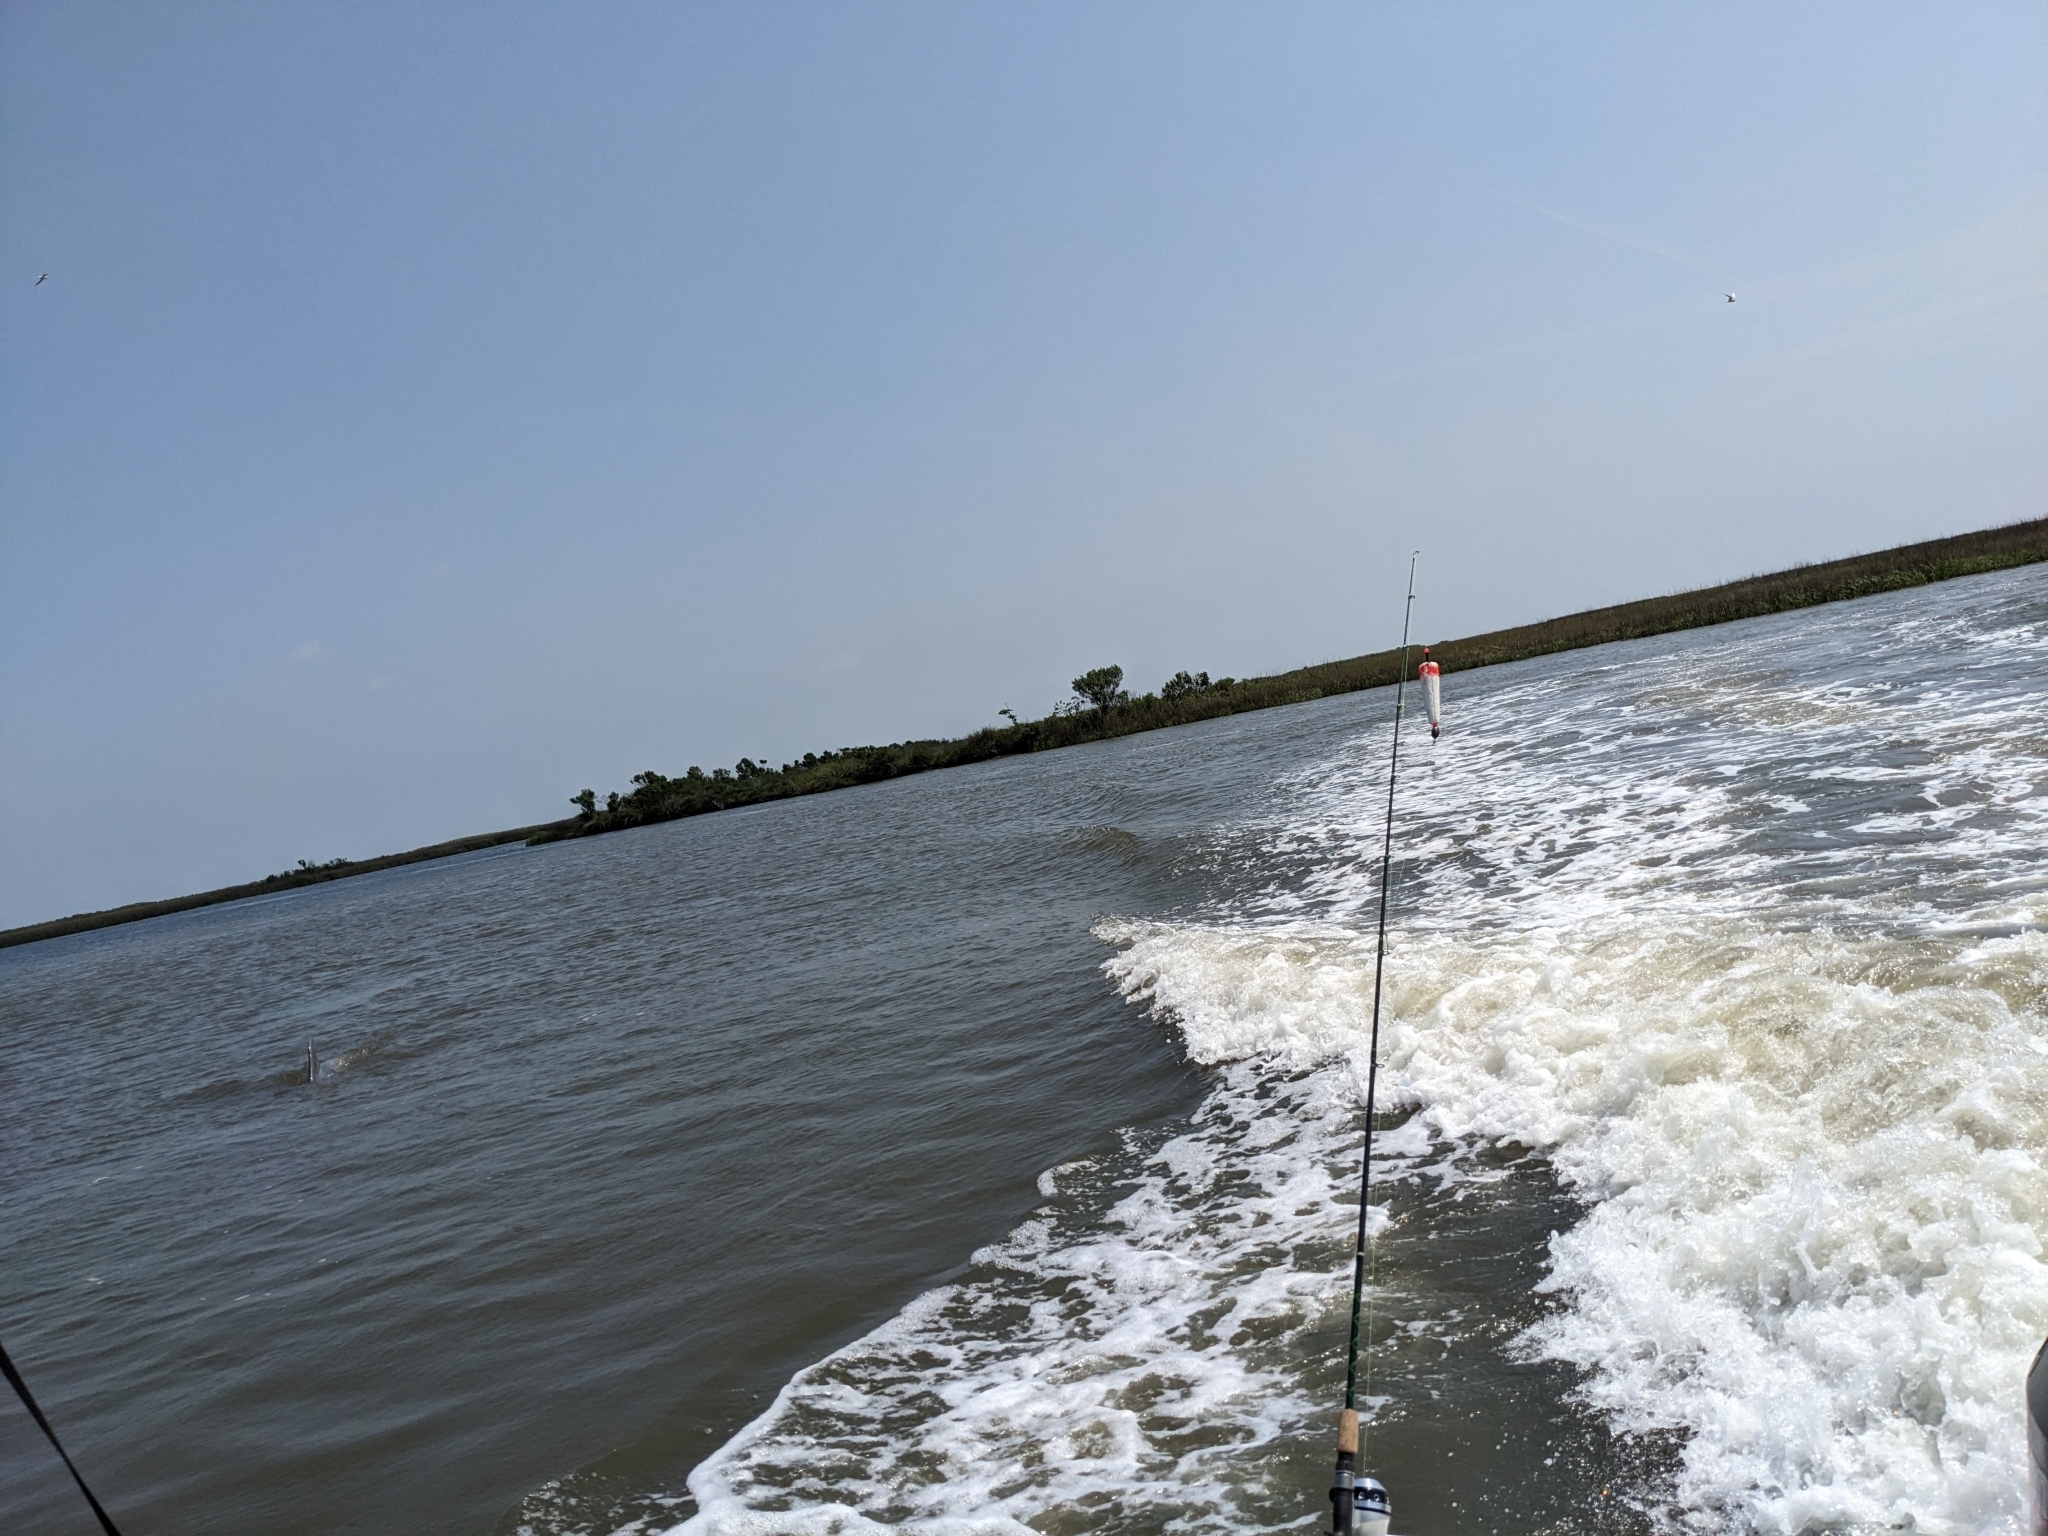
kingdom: Animalia
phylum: Chordata
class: Mammalia
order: Cetacea
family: Delphinidae
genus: Tursiops
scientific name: Tursiops truncatus
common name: Bottlenose dolphin
